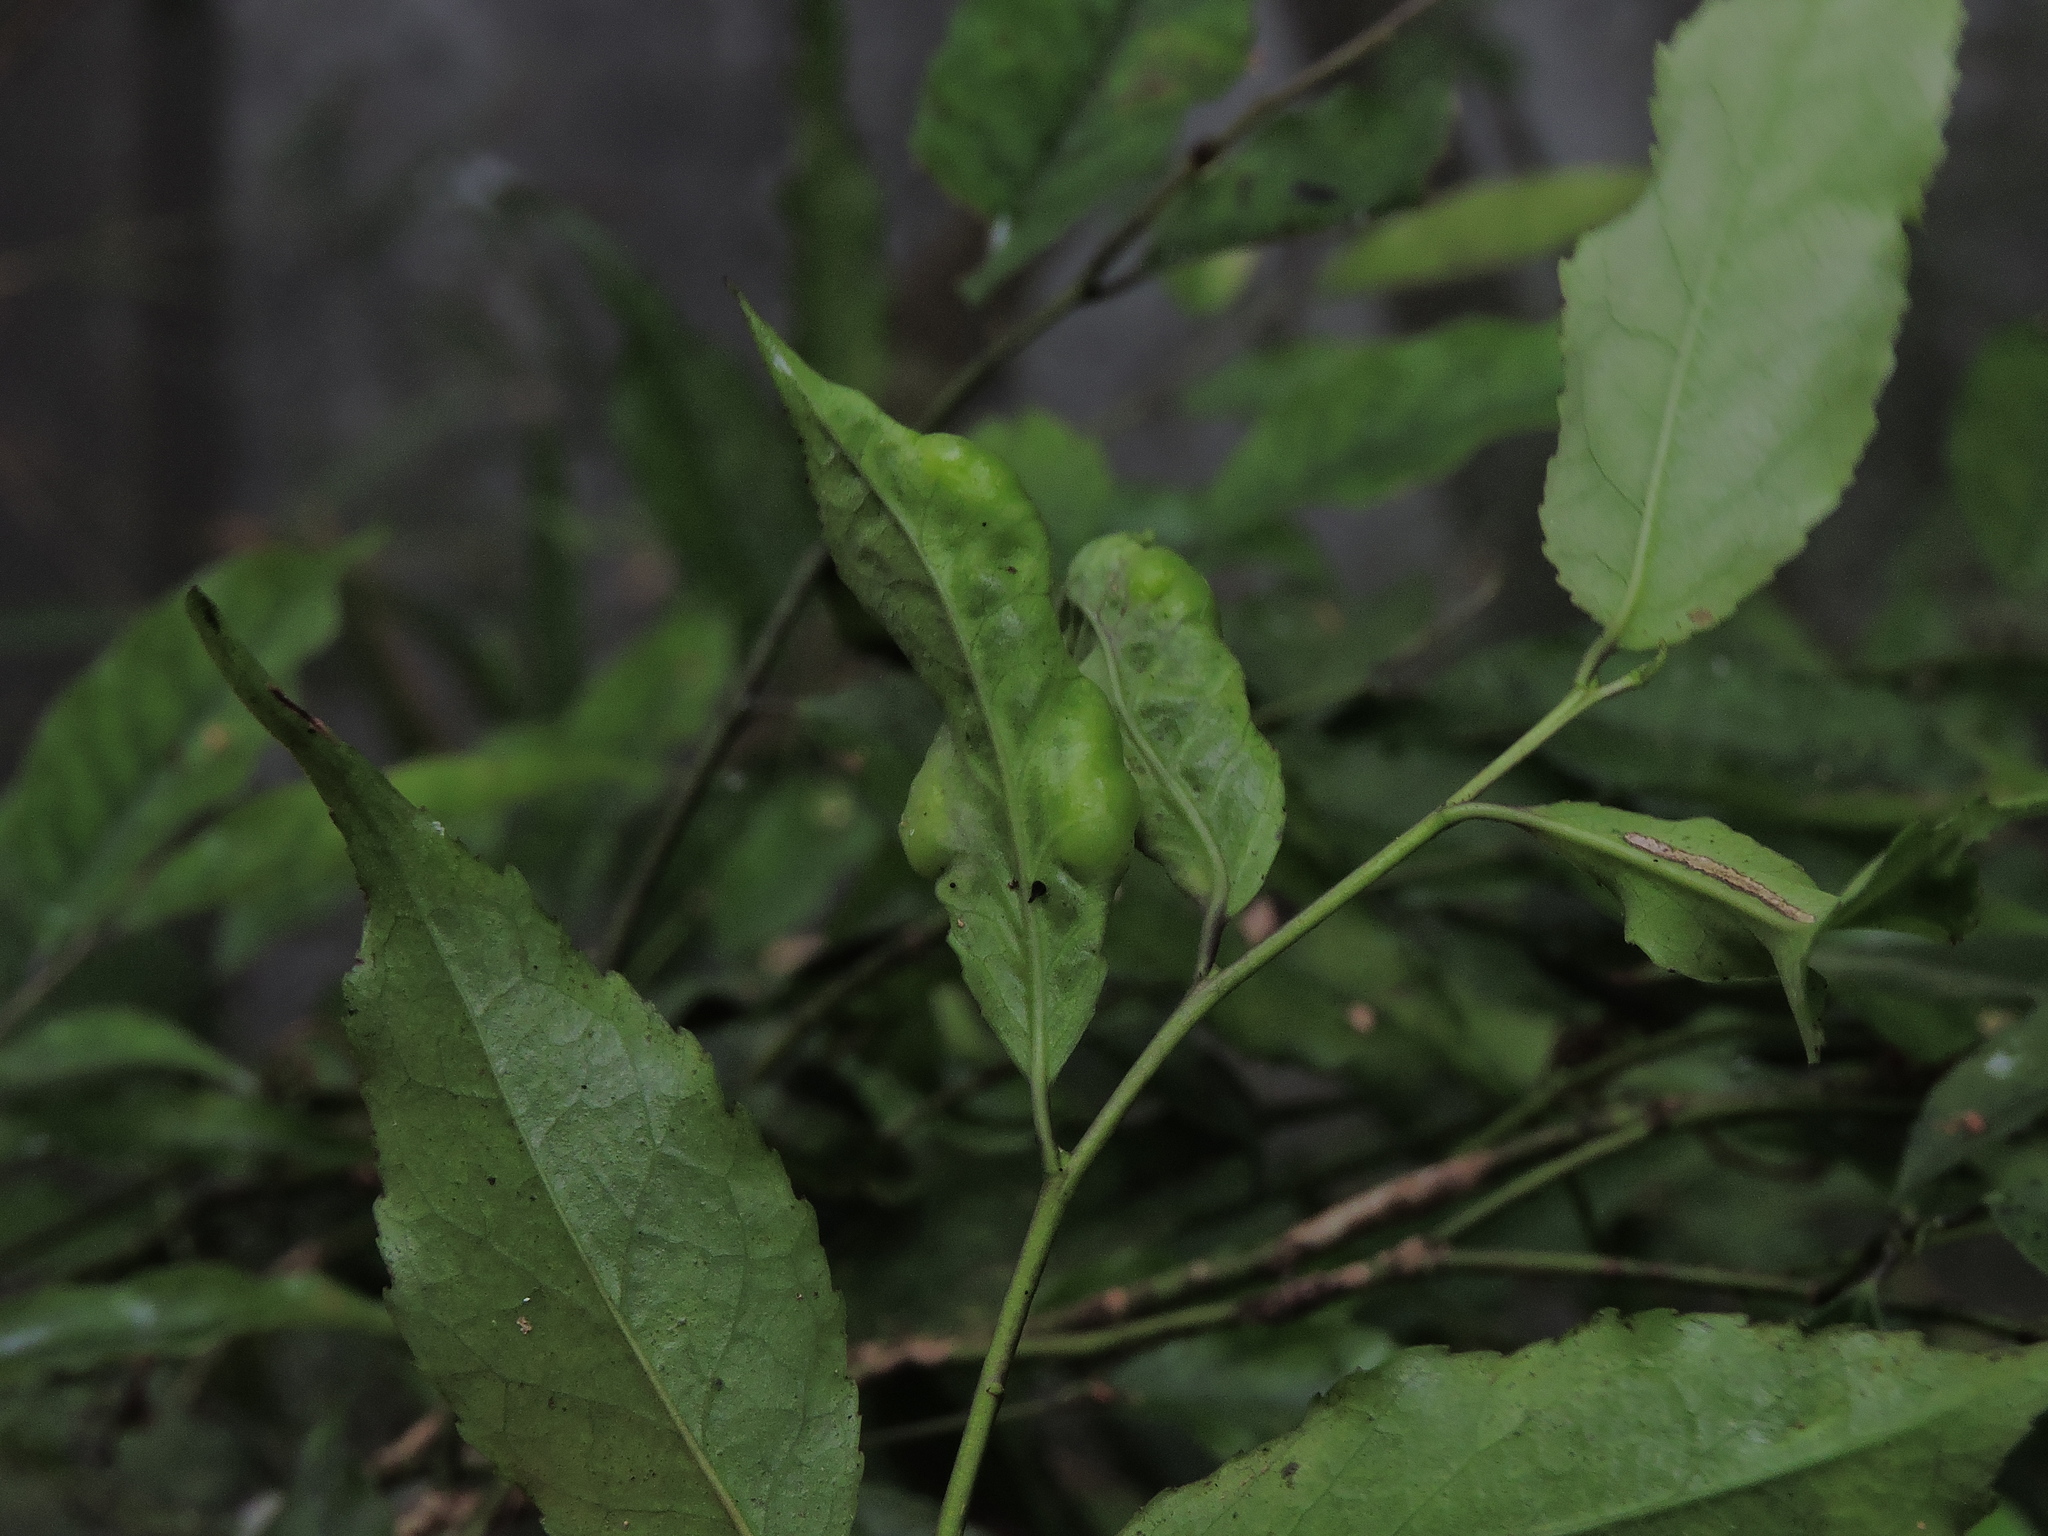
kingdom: Plantae
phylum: Tracheophyta
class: Magnoliopsida
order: Aquifoliales
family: Aquifoliaceae
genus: Ilex
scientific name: Ilex arisanensis
